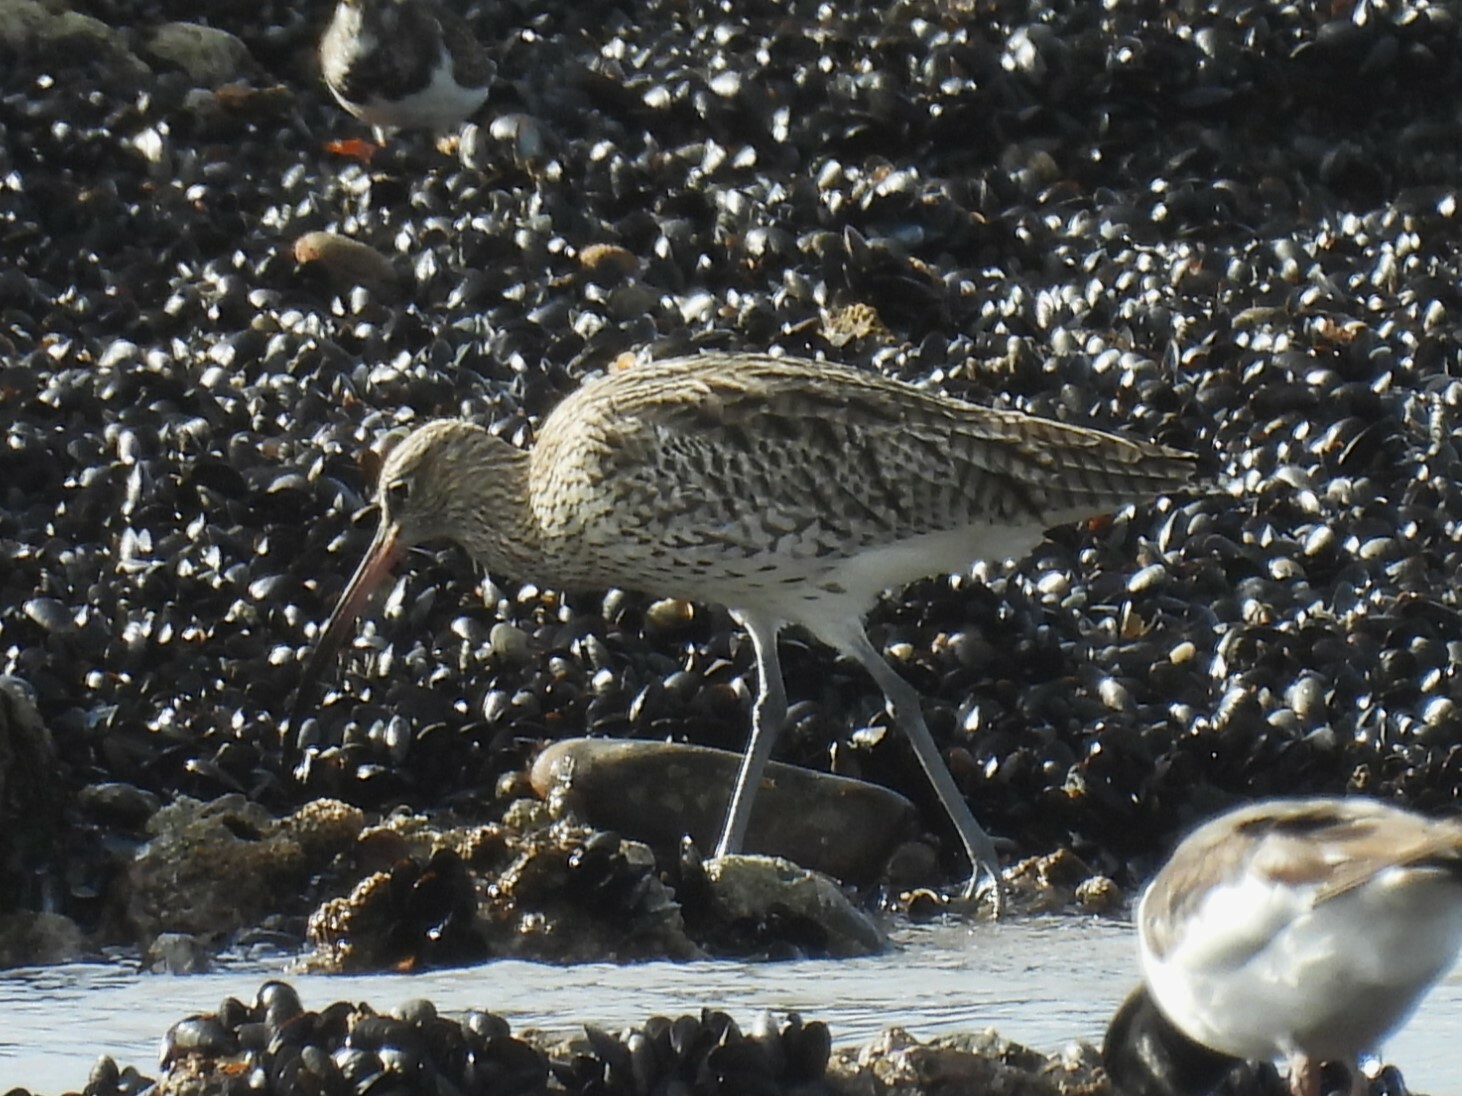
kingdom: Animalia
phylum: Chordata
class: Aves
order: Charadriiformes
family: Scolopacidae
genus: Numenius
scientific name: Numenius arquata
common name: Eurasian curlew
